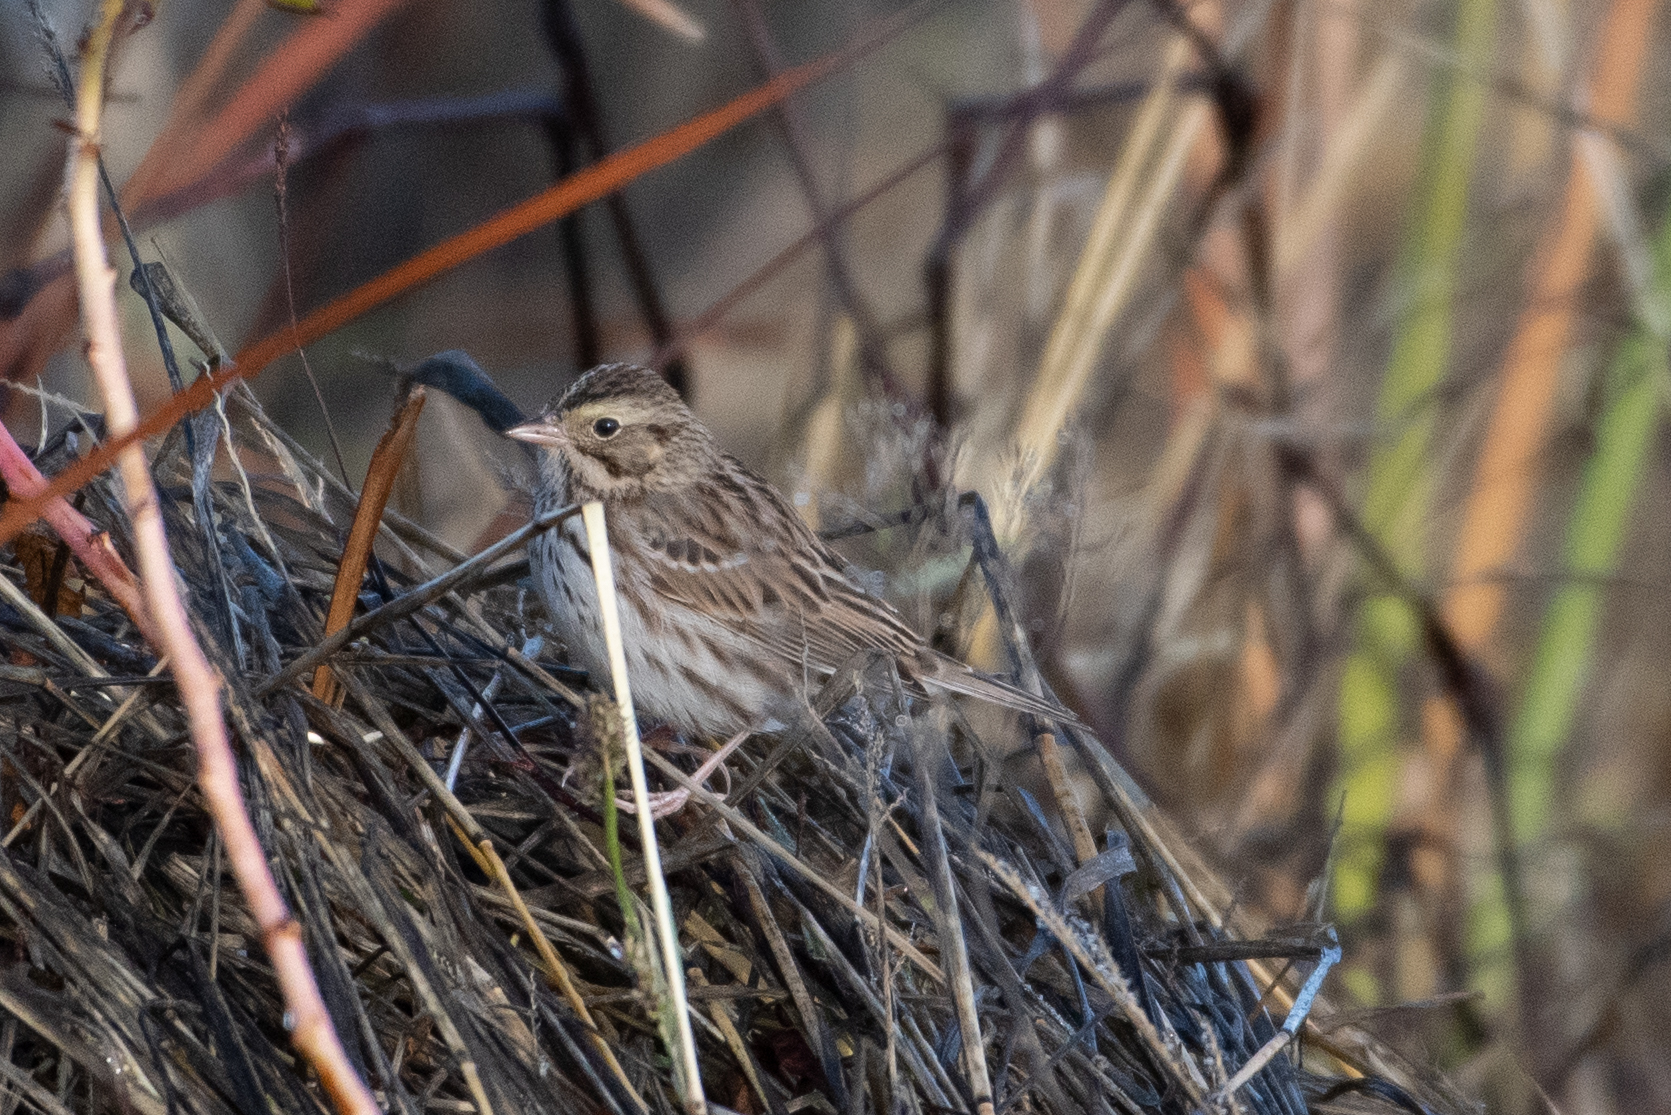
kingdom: Animalia
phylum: Chordata
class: Aves
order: Passeriformes
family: Passerellidae
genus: Passerculus
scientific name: Passerculus sandwichensis
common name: Savannah sparrow
